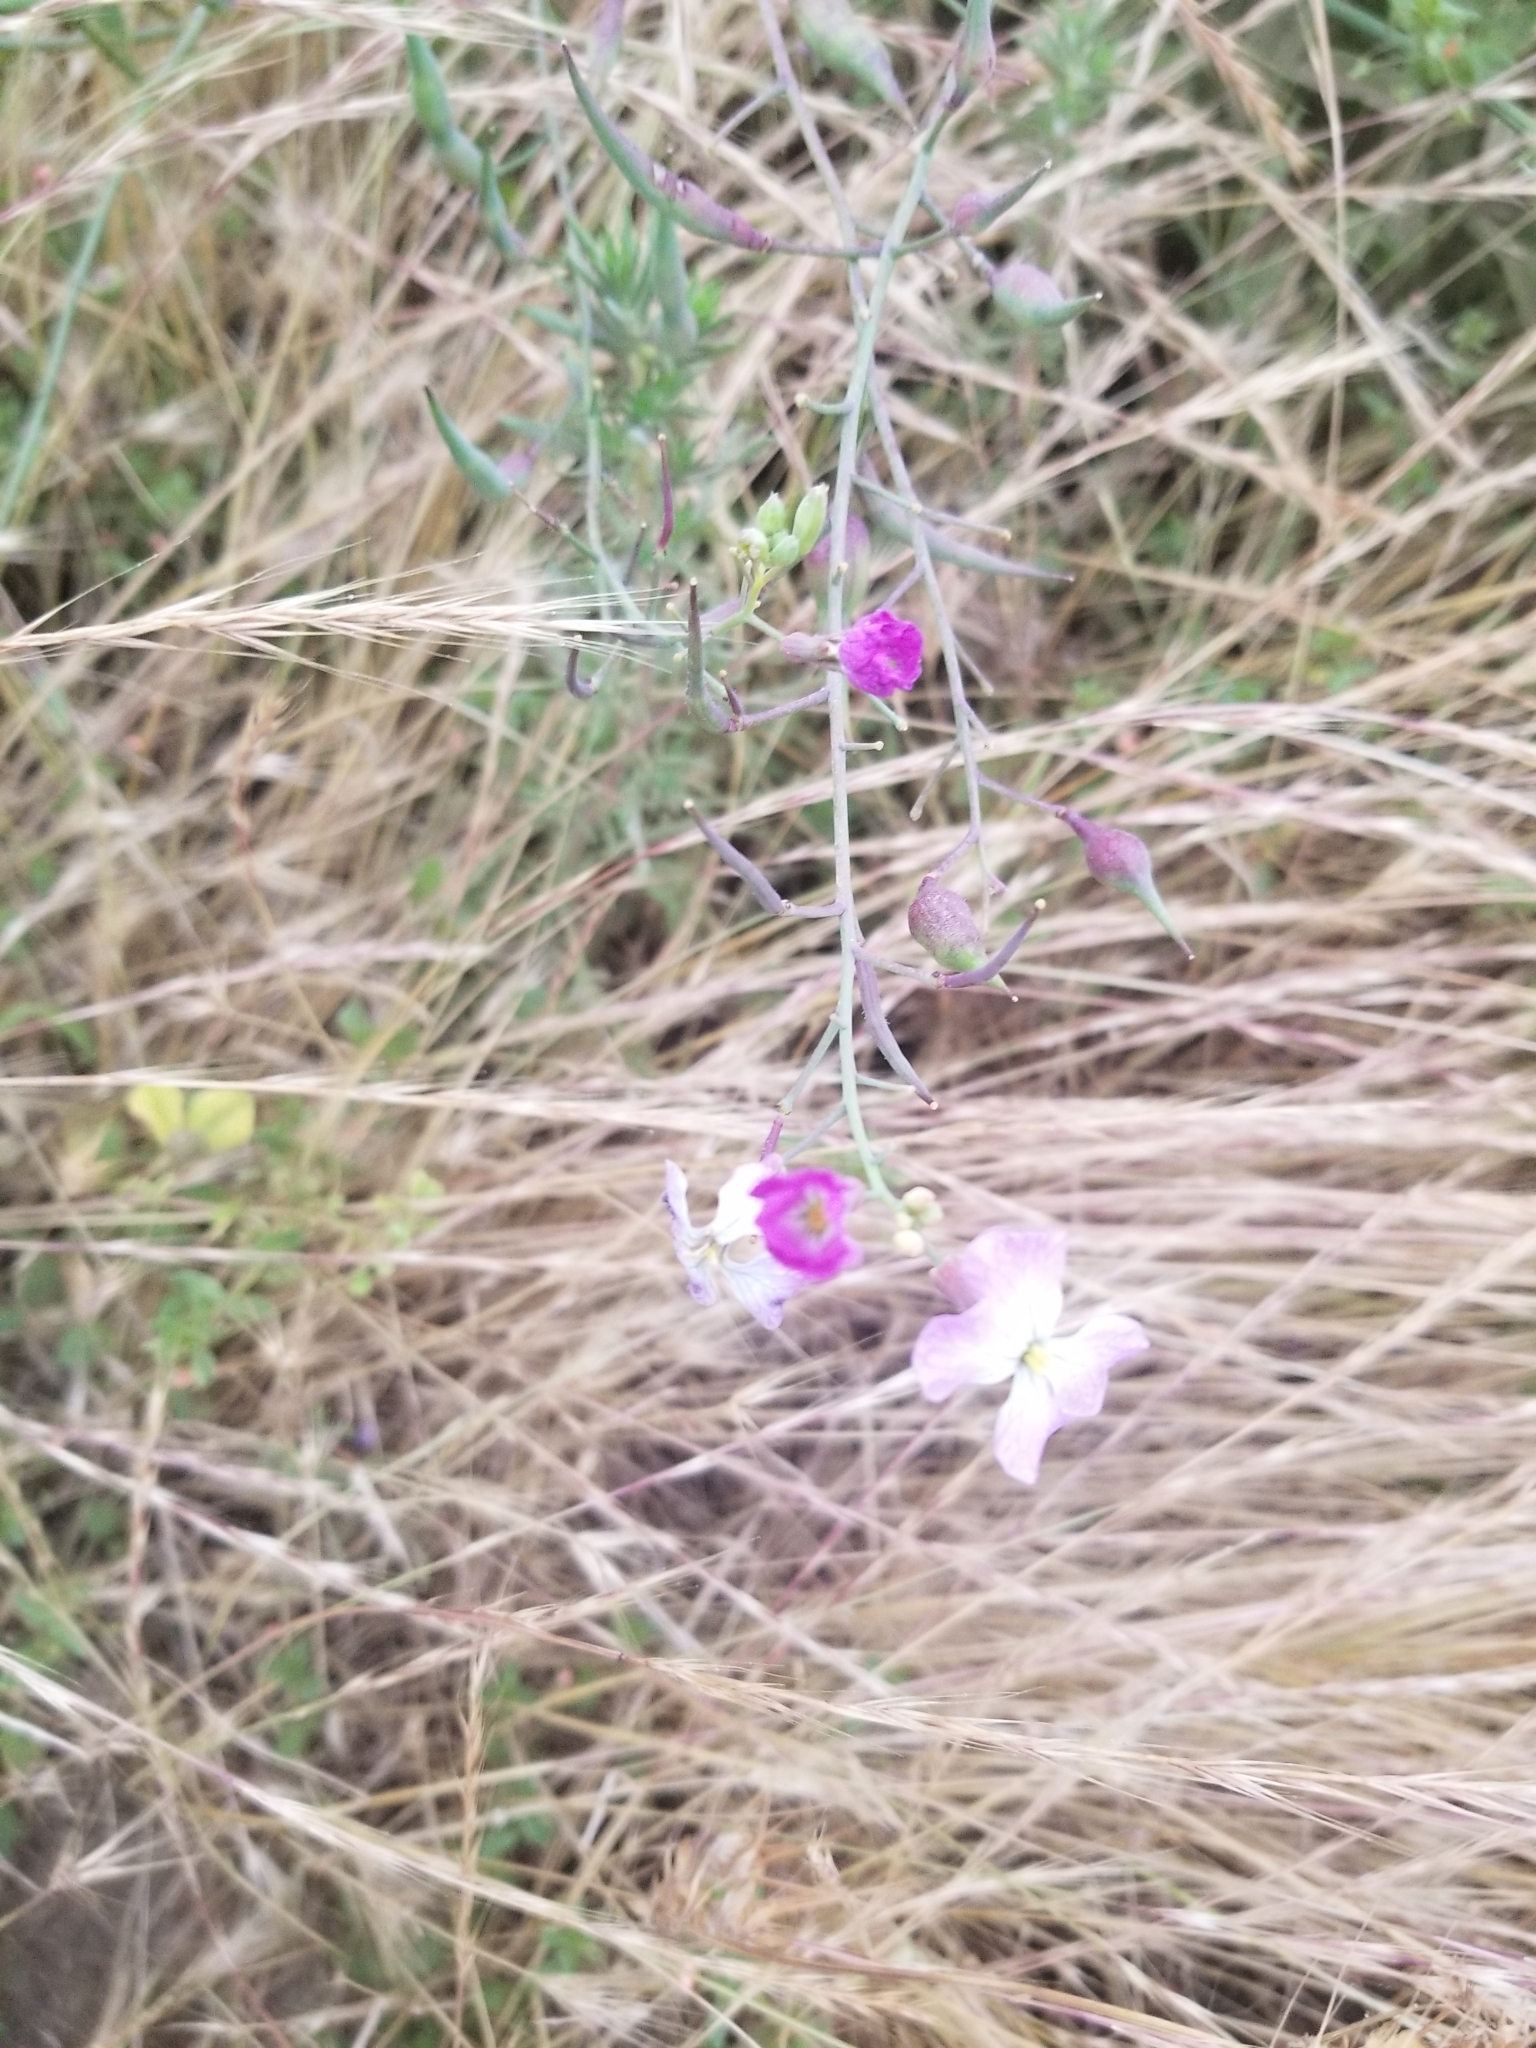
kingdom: Plantae
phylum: Tracheophyta
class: Magnoliopsida
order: Brassicales
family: Brassicaceae
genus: Raphanus
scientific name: Raphanus sativus
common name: Cultivated radish
